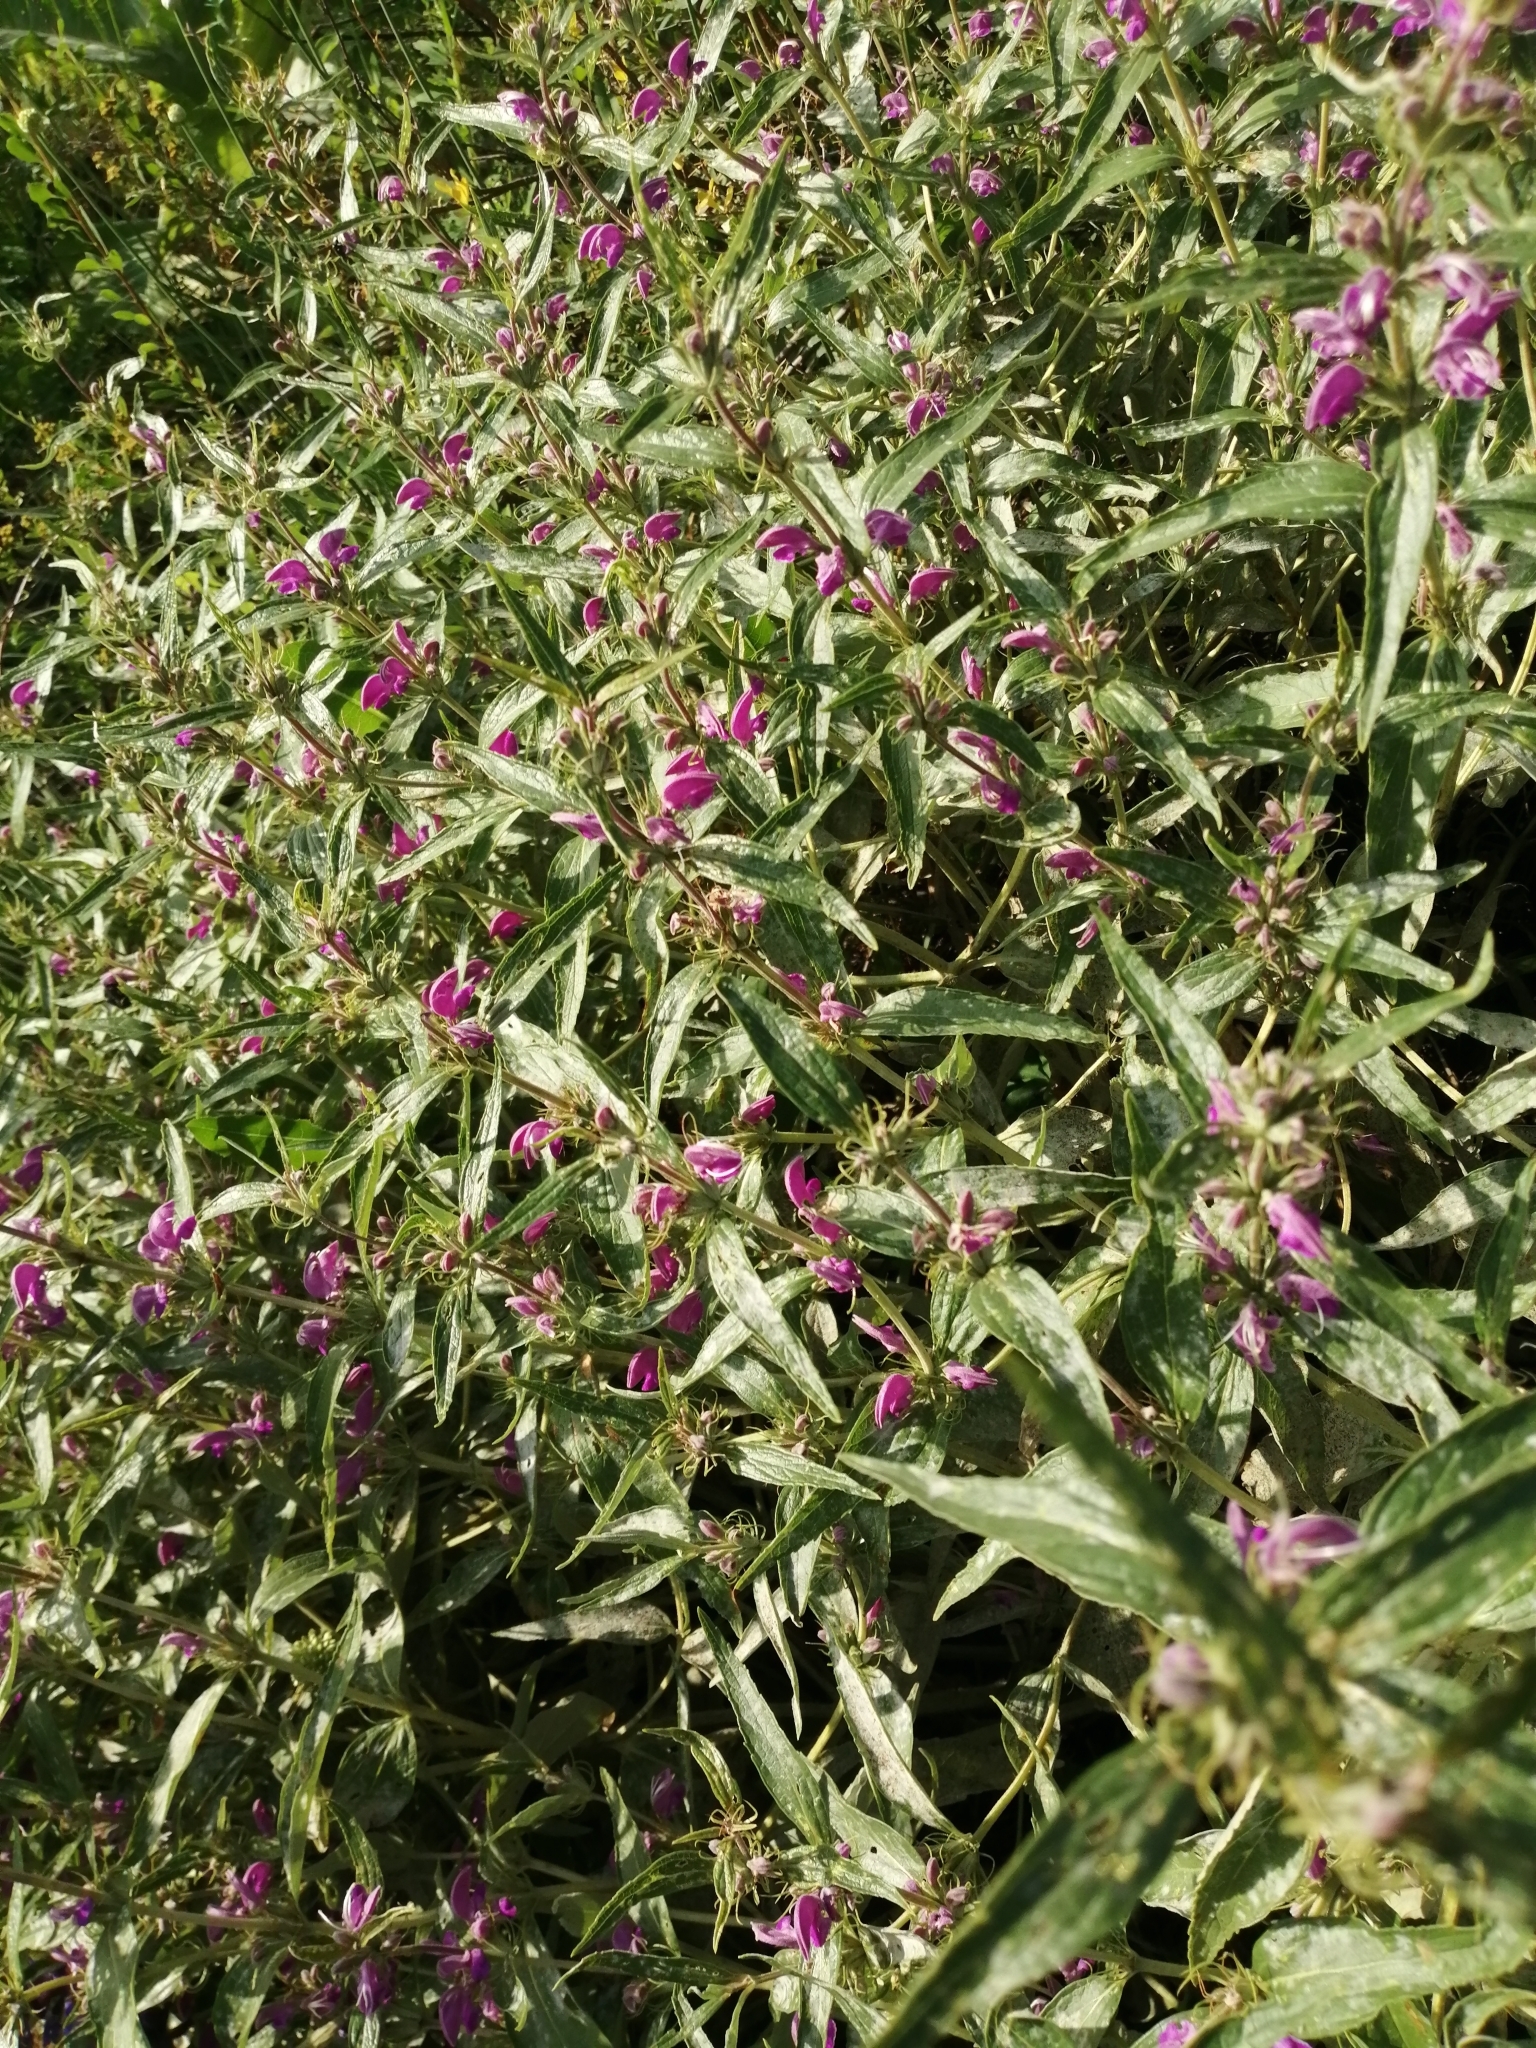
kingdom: Plantae
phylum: Tracheophyta
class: Magnoliopsida
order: Lamiales
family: Lamiaceae
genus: Phlomis
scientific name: Phlomis herba-venti
